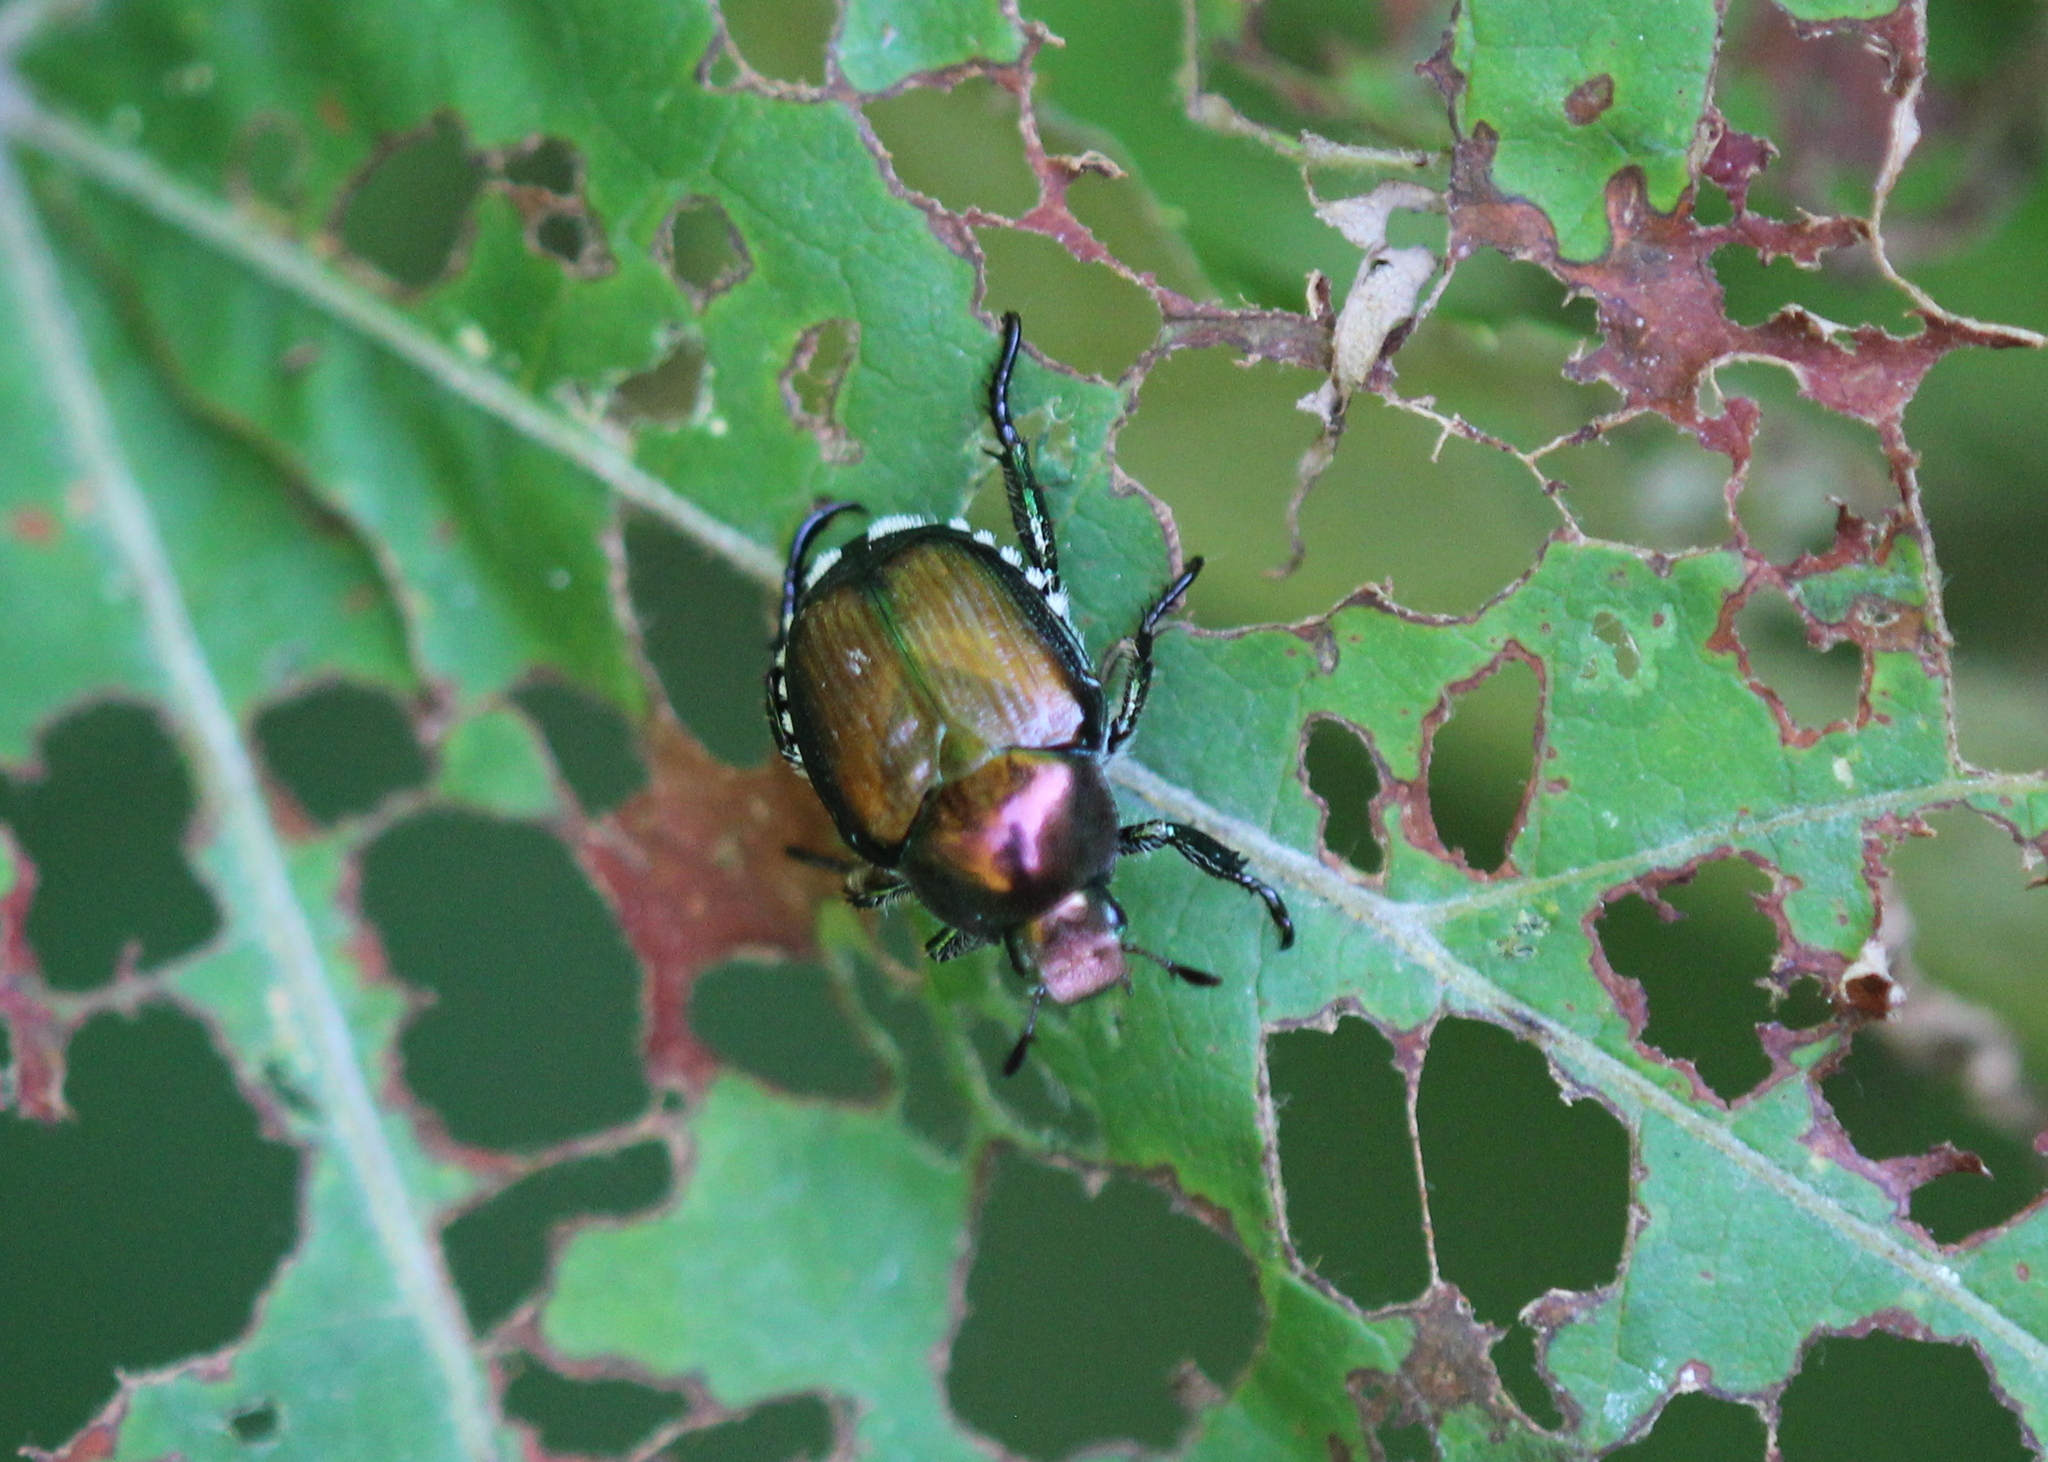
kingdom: Animalia
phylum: Arthropoda
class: Insecta
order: Coleoptera
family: Scarabaeidae
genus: Popillia
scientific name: Popillia japonica
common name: Japanese beetle
